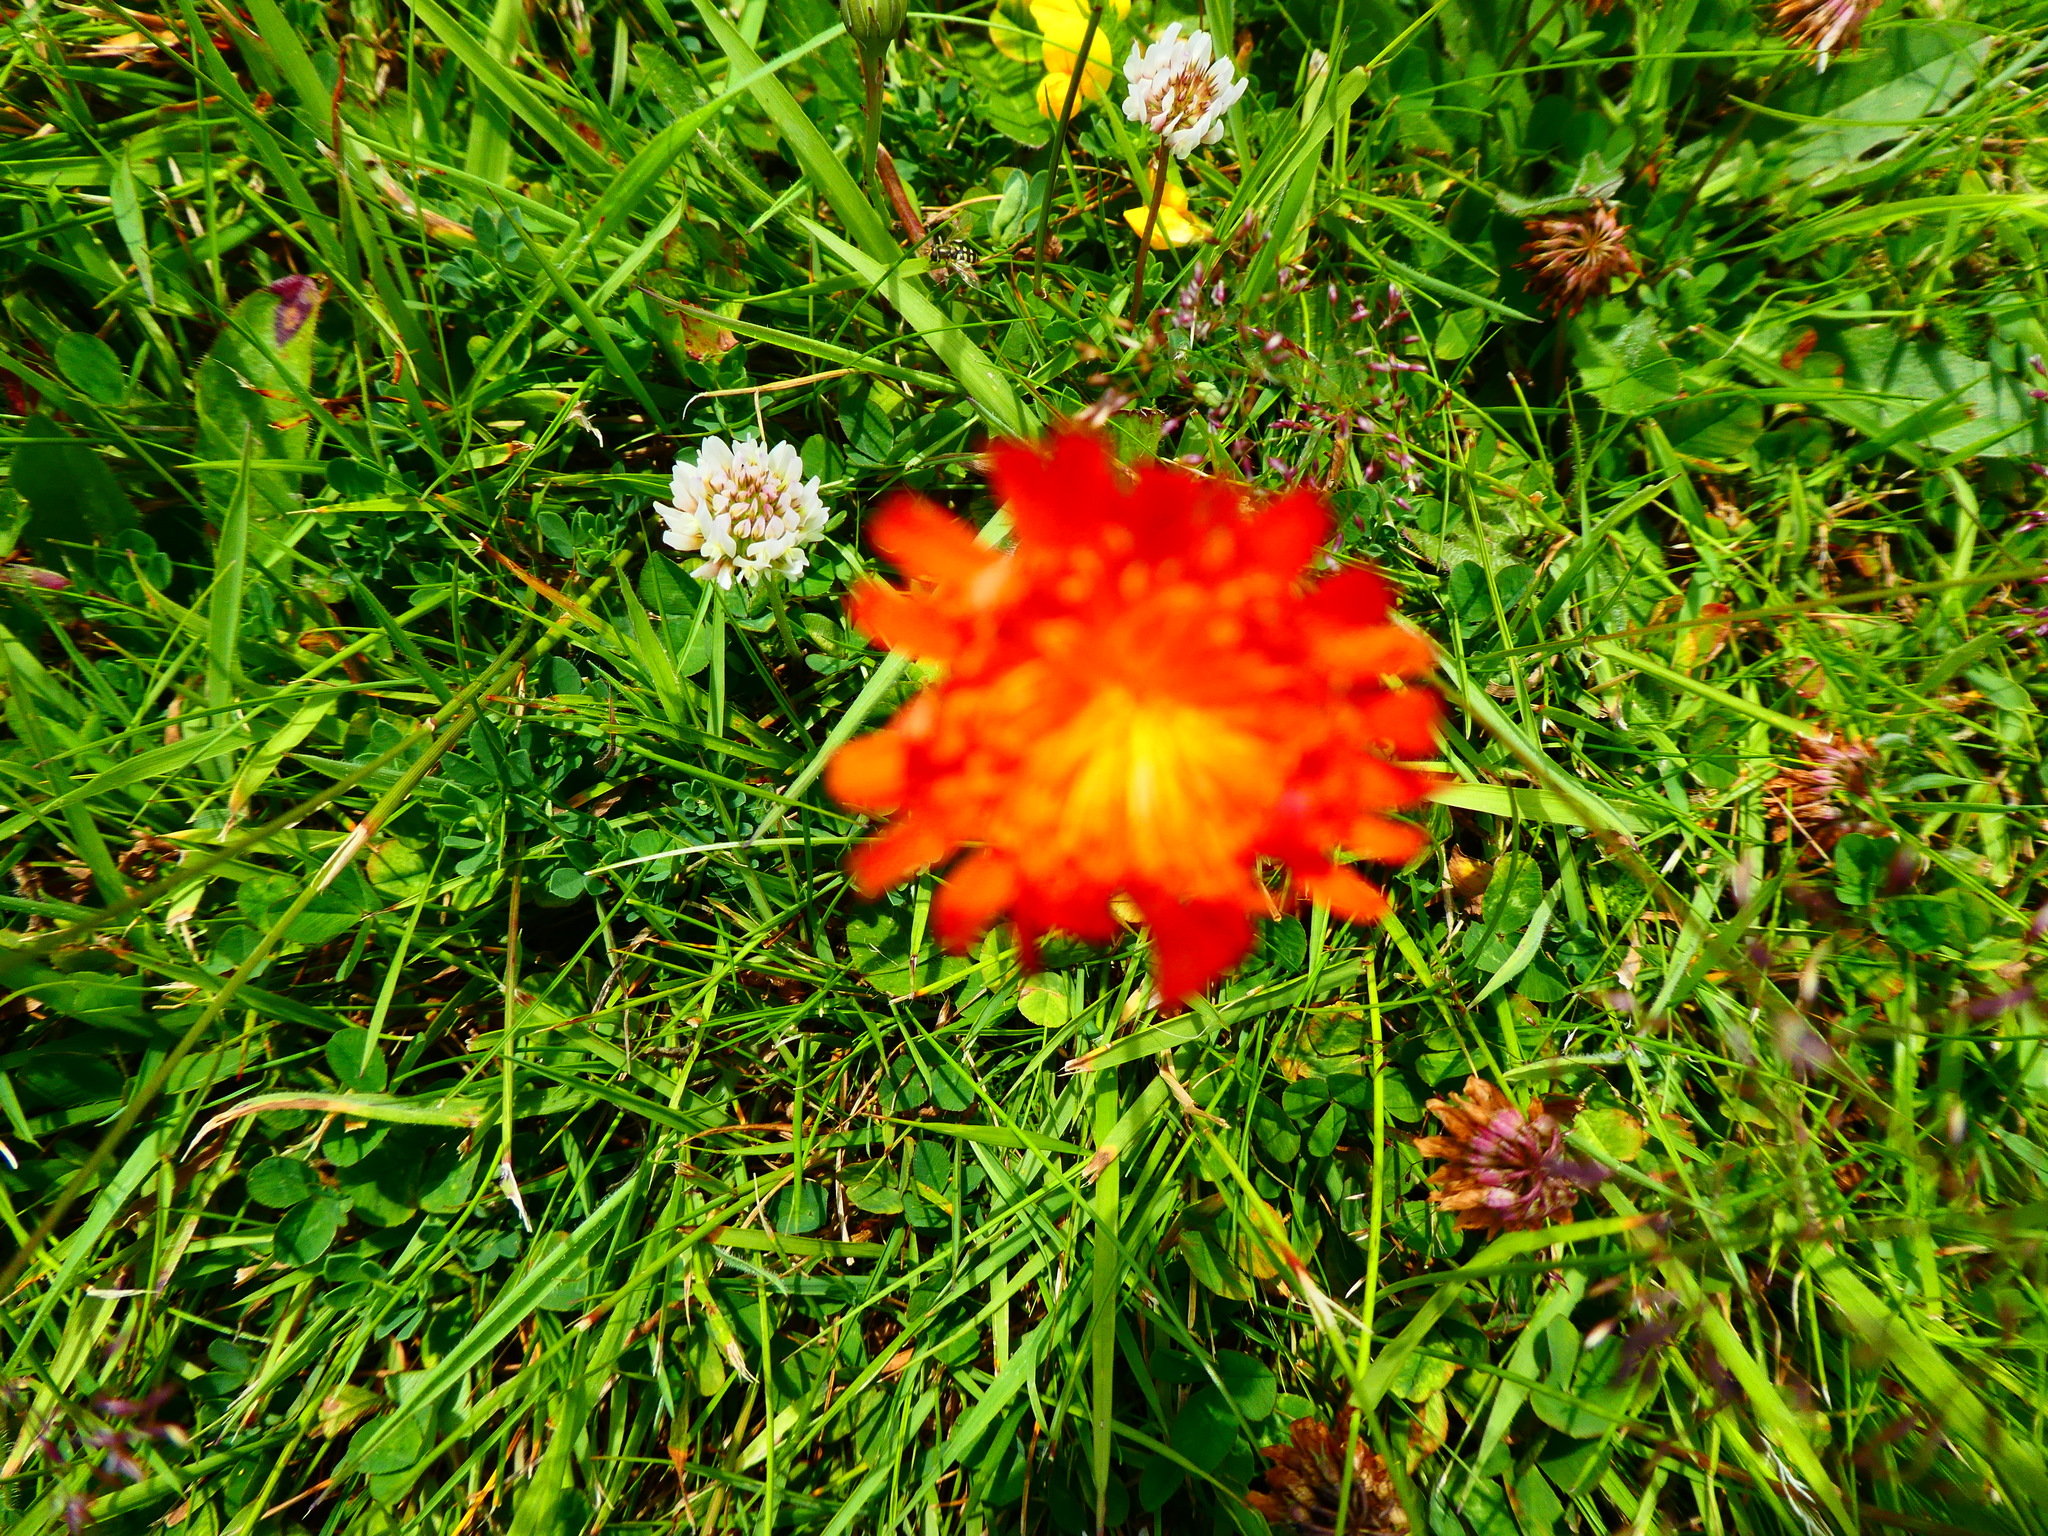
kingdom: Plantae
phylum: Tracheophyta
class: Magnoliopsida
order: Asterales
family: Asteraceae
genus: Pilosella
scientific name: Pilosella aurantiaca
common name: Fox-and-cubs
